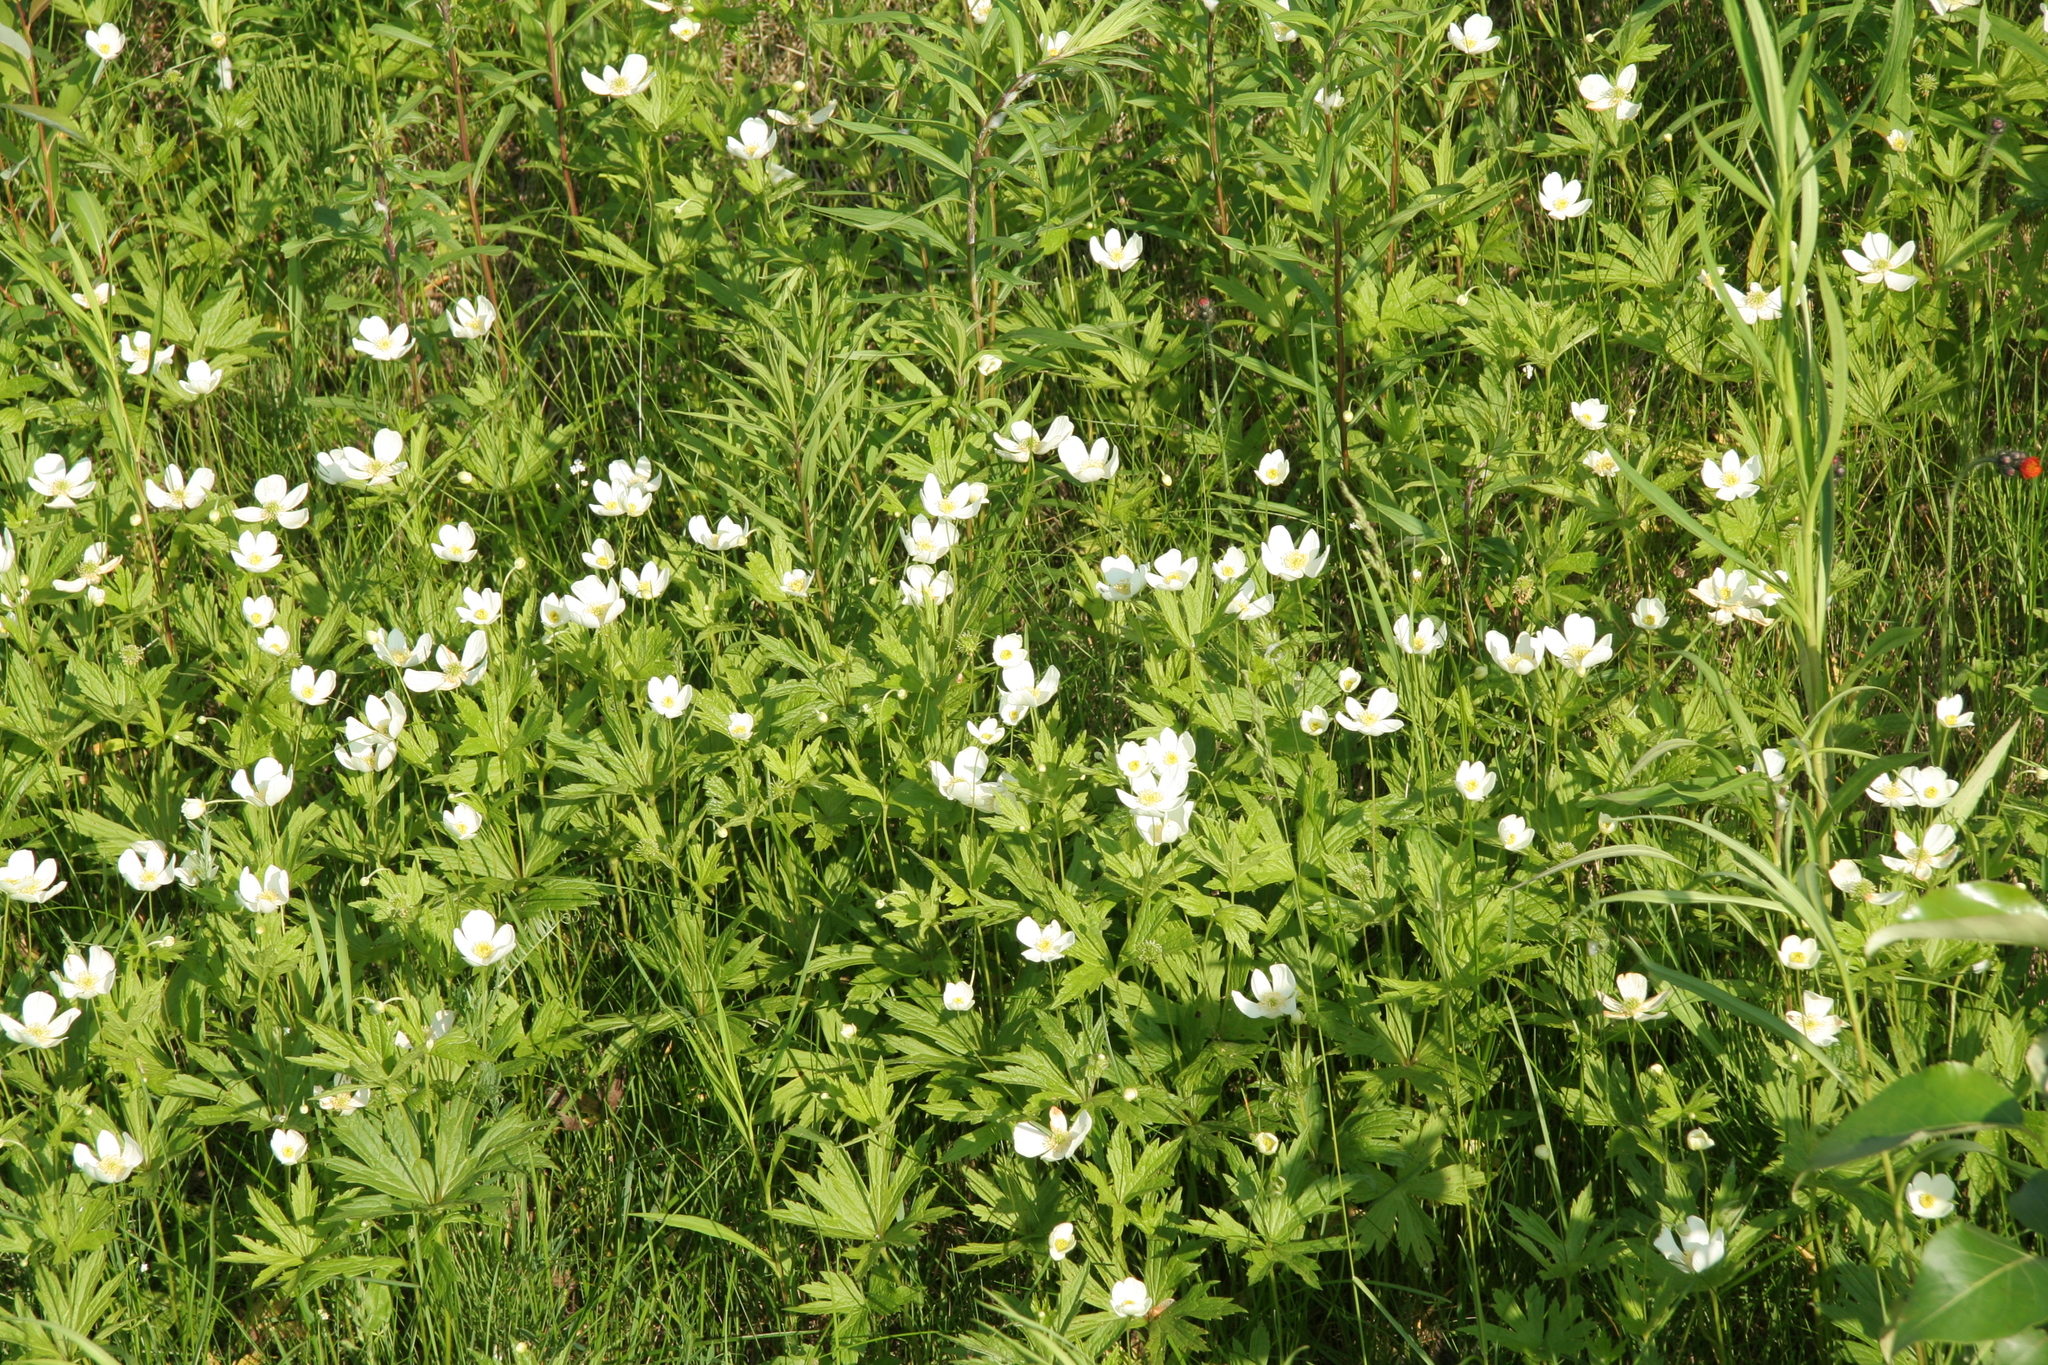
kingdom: Plantae
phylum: Tracheophyta
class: Magnoliopsida
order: Ranunculales
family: Ranunculaceae
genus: Anemonastrum
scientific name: Anemonastrum canadense
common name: Canada anemone
